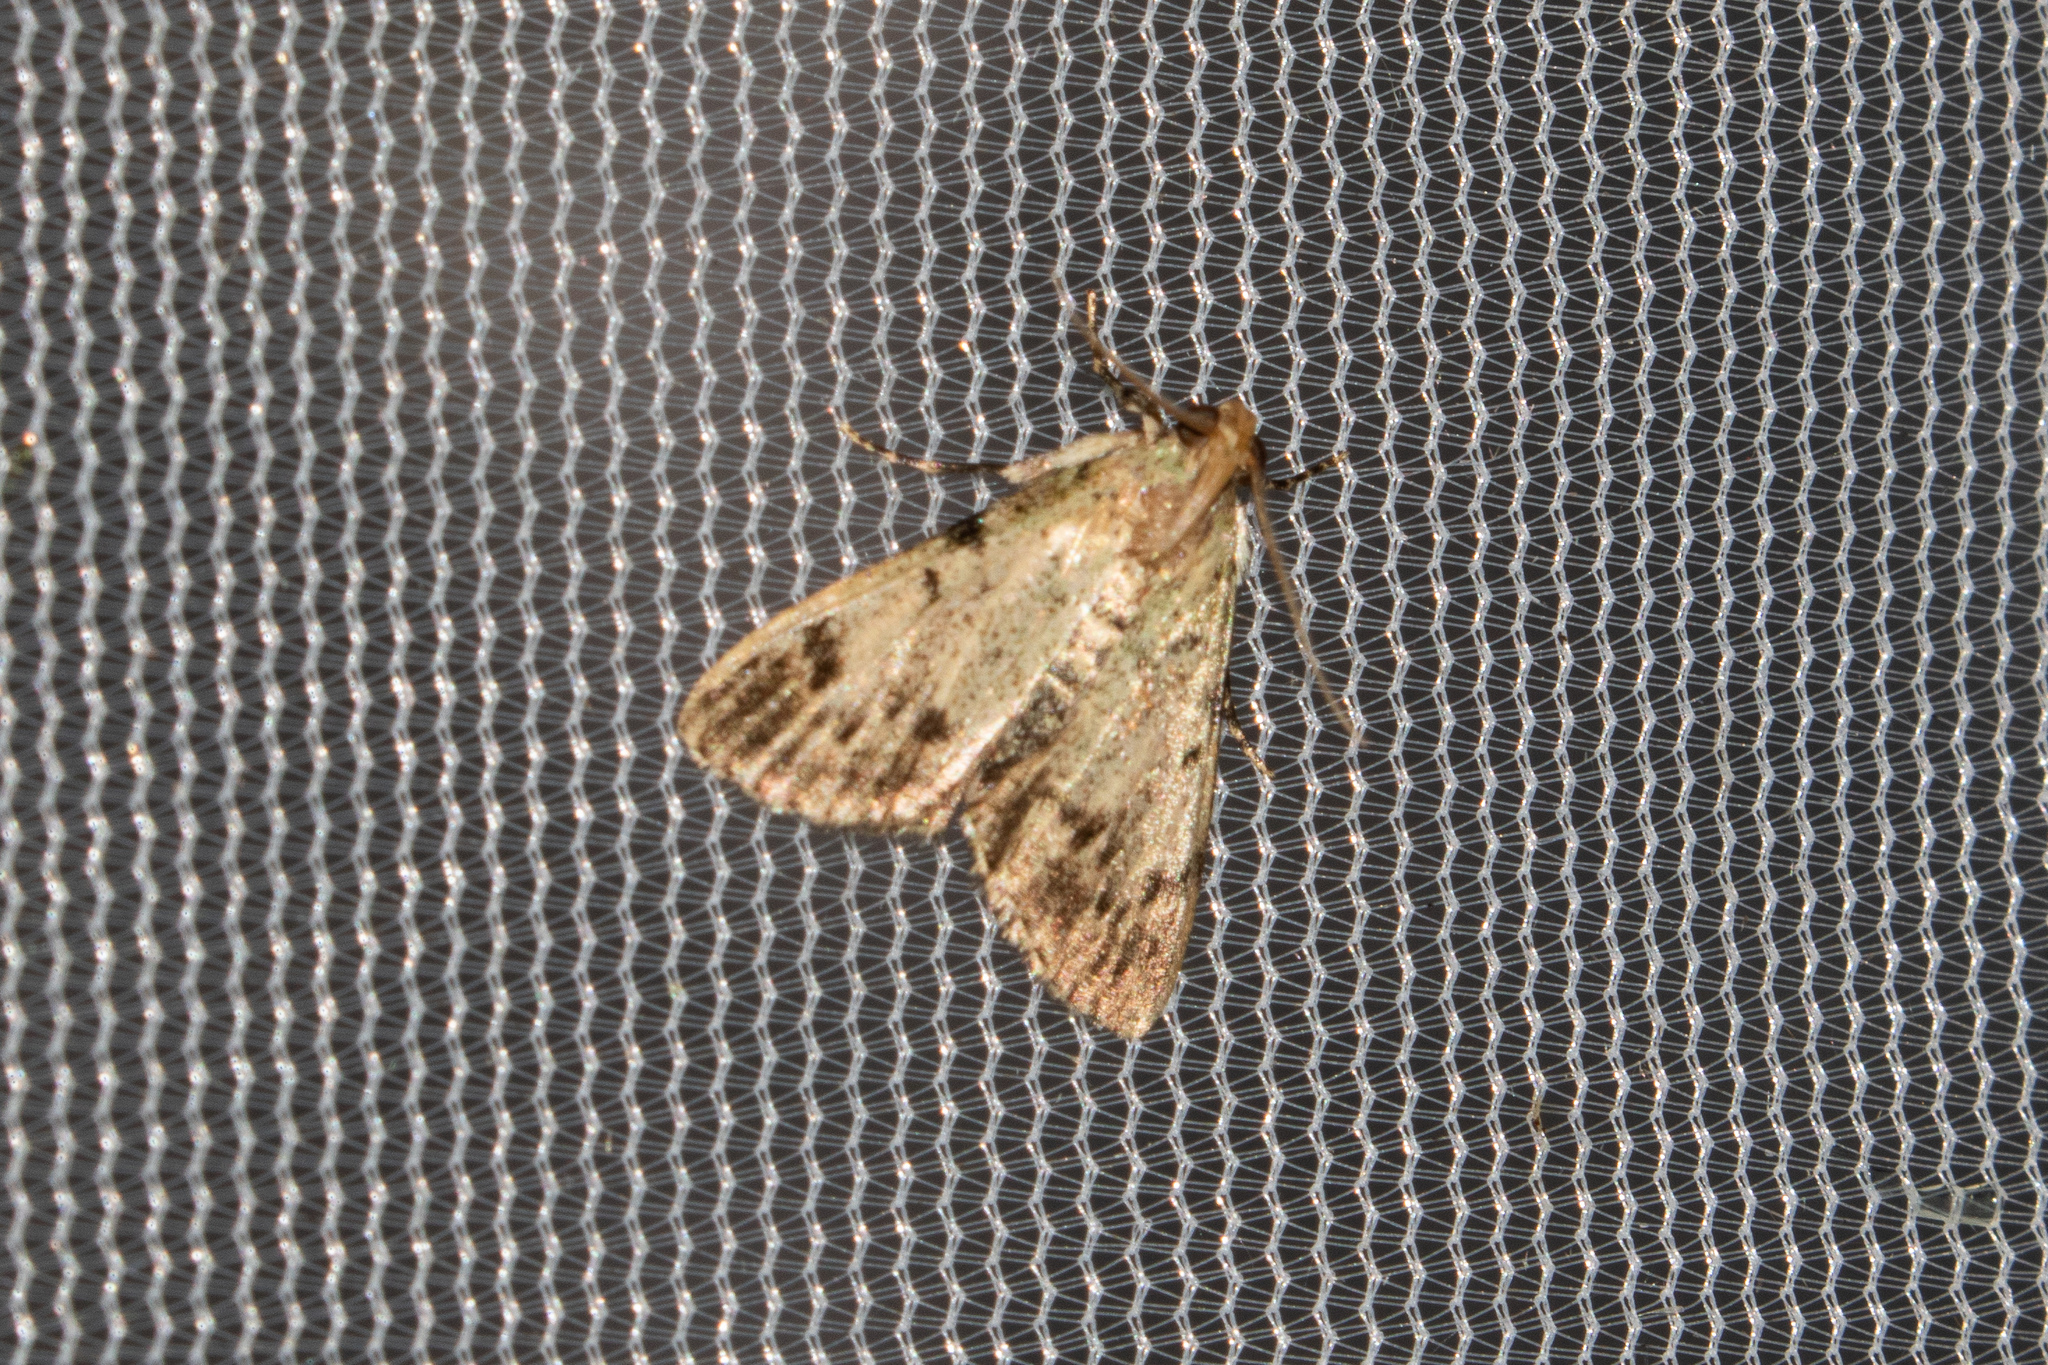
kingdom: Animalia
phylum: Arthropoda
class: Insecta
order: Lepidoptera
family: Pyralidae
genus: Epipaschia
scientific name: Epipaschia superatalis
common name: Dimorphic macalla moth
